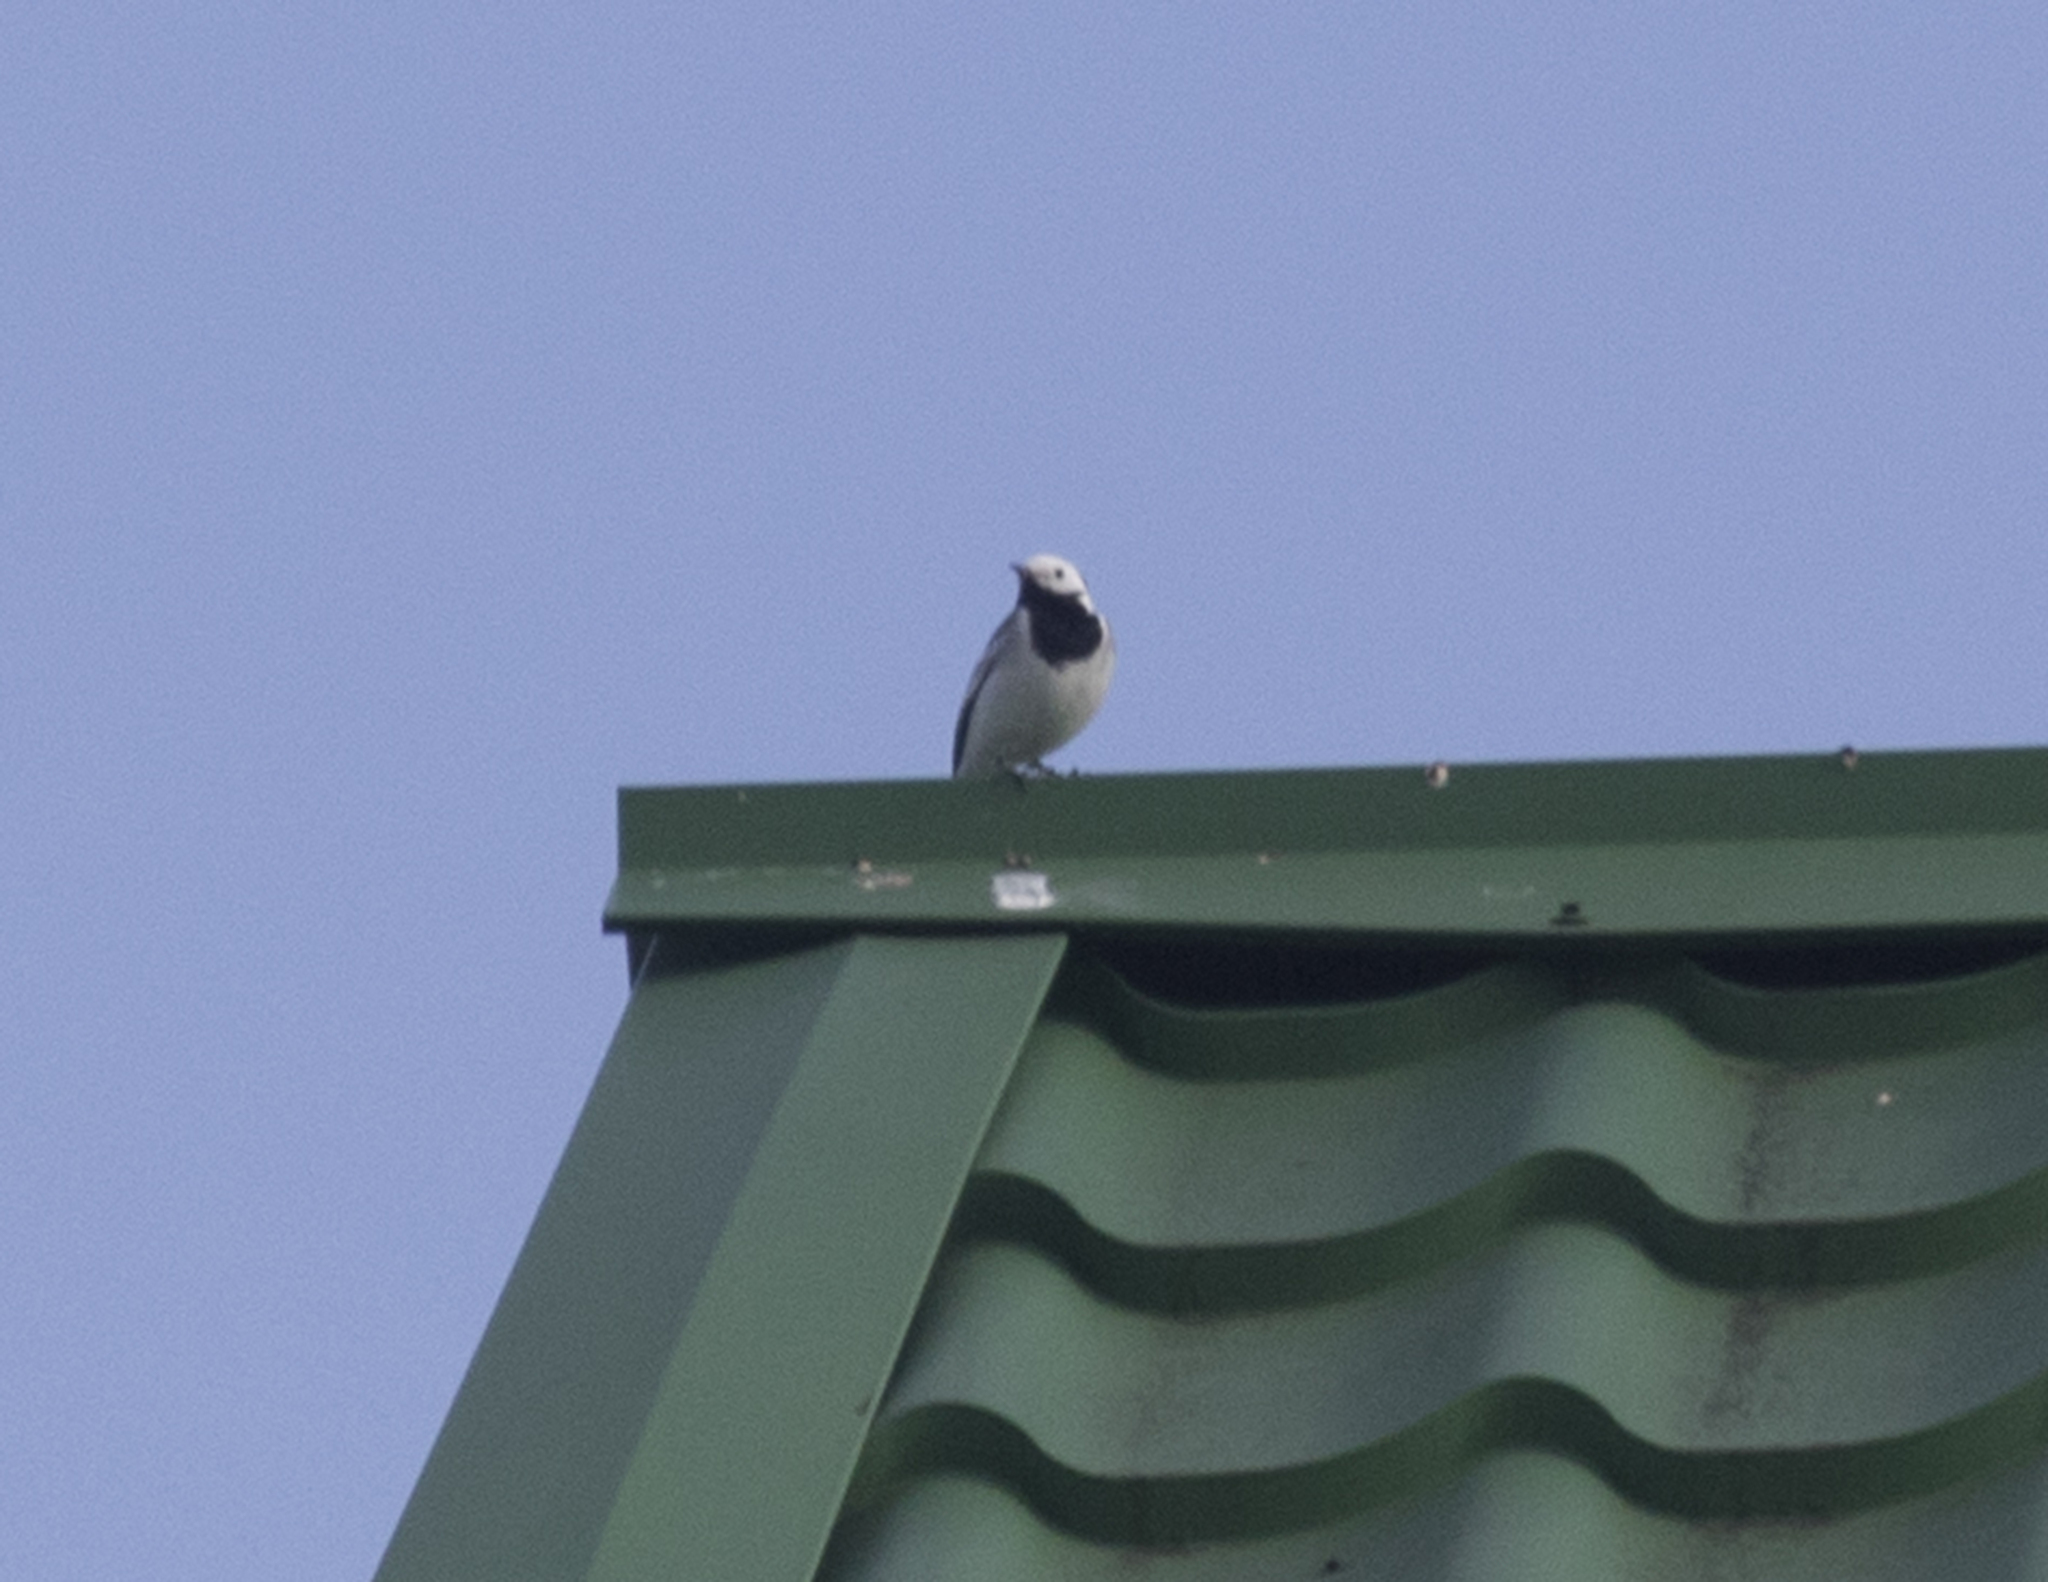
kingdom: Animalia
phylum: Chordata
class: Aves
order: Passeriformes
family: Motacillidae
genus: Motacilla
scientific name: Motacilla alba
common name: White wagtail
